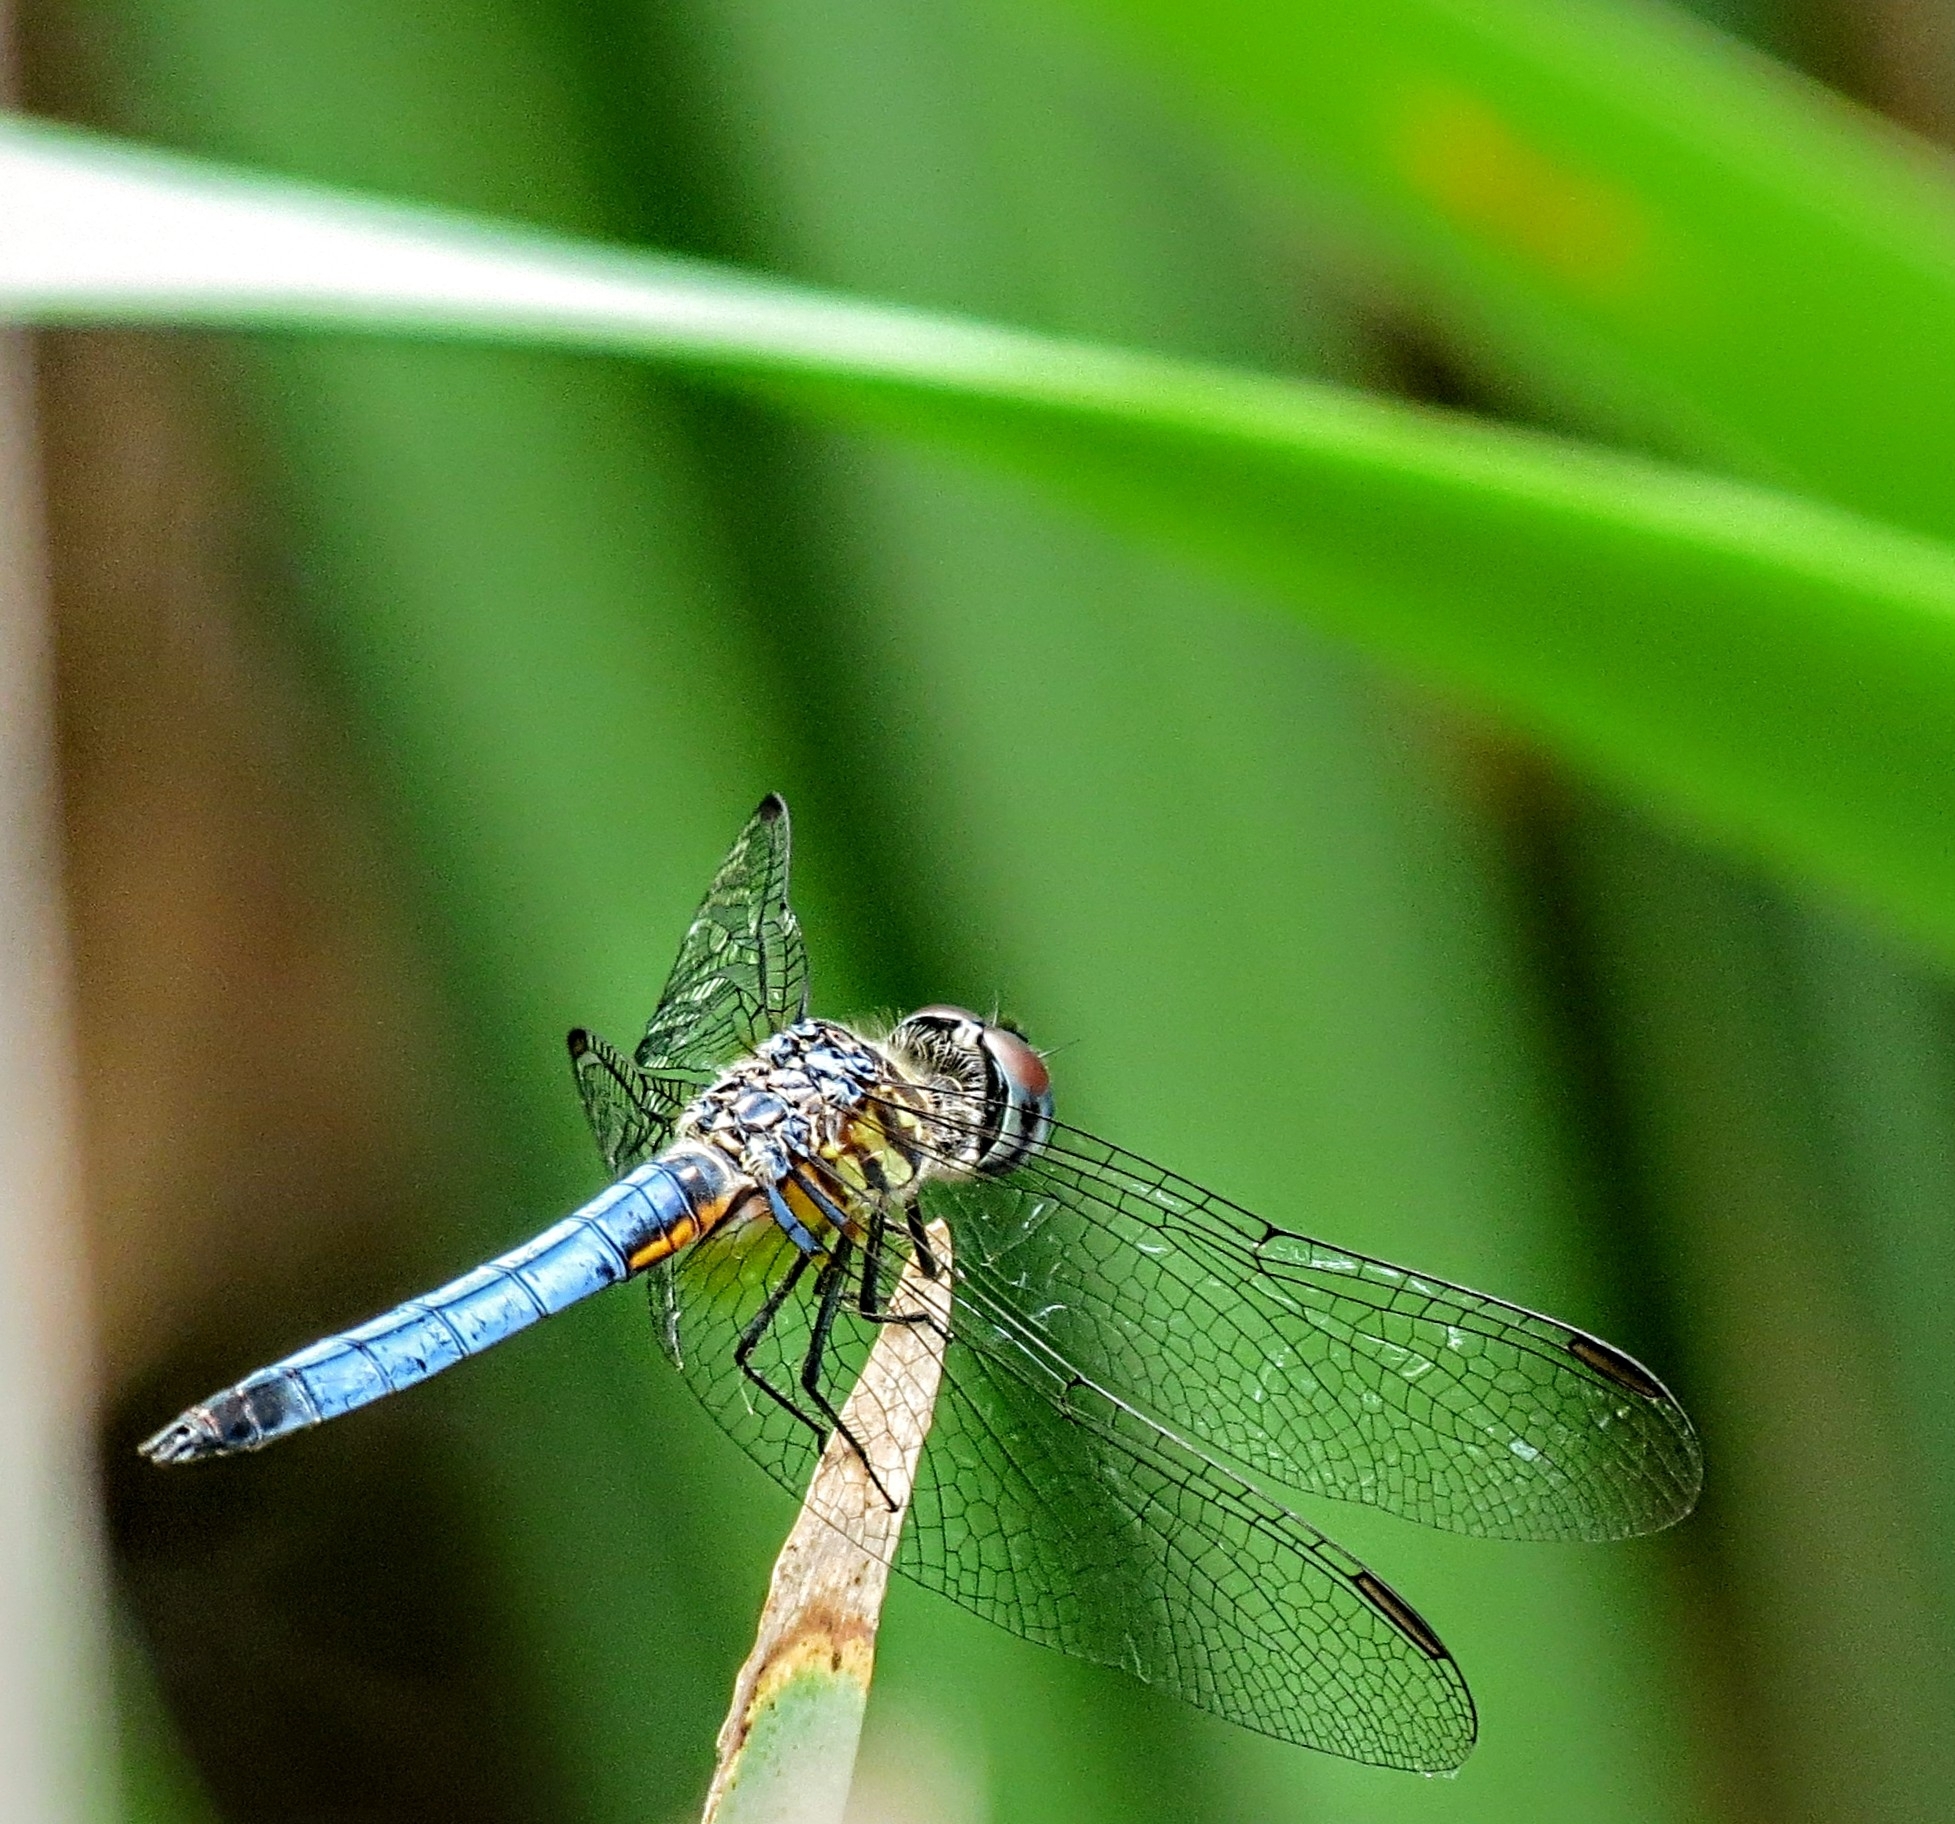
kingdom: Animalia
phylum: Arthropoda
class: Insecta
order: Odonata
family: Libellulidae
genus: Pachydiplax
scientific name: Pachydiplax longipennis
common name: Blue dasher
